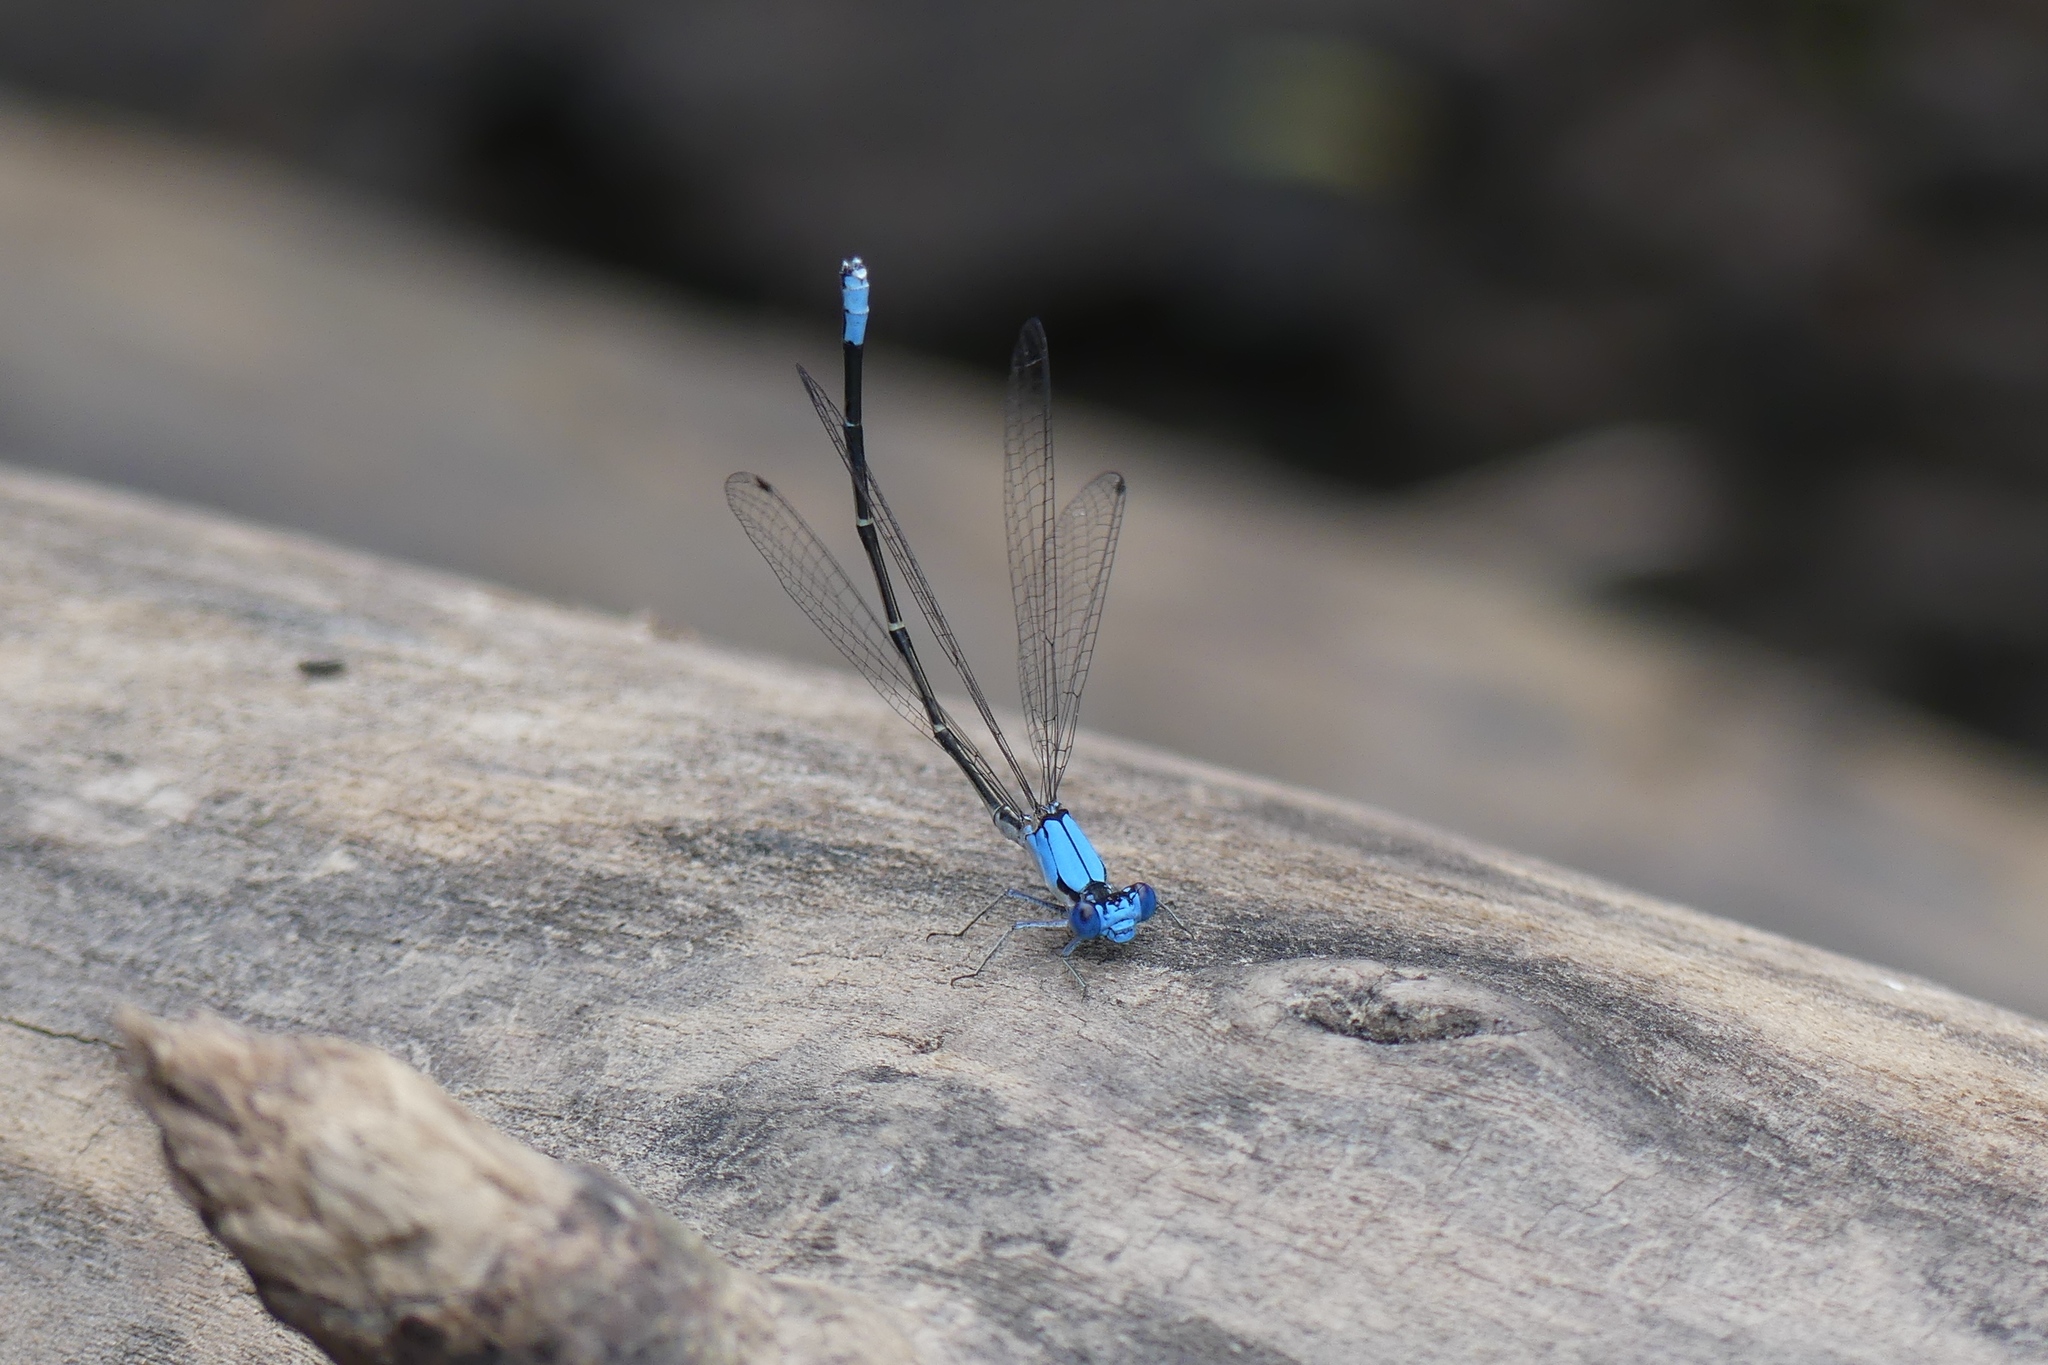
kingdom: Animalia
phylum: Arthropoda
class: Insecta
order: Odonata
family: Coenagrionidae
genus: Argia
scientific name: Argia apicalis
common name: Blue-fronted dancer
